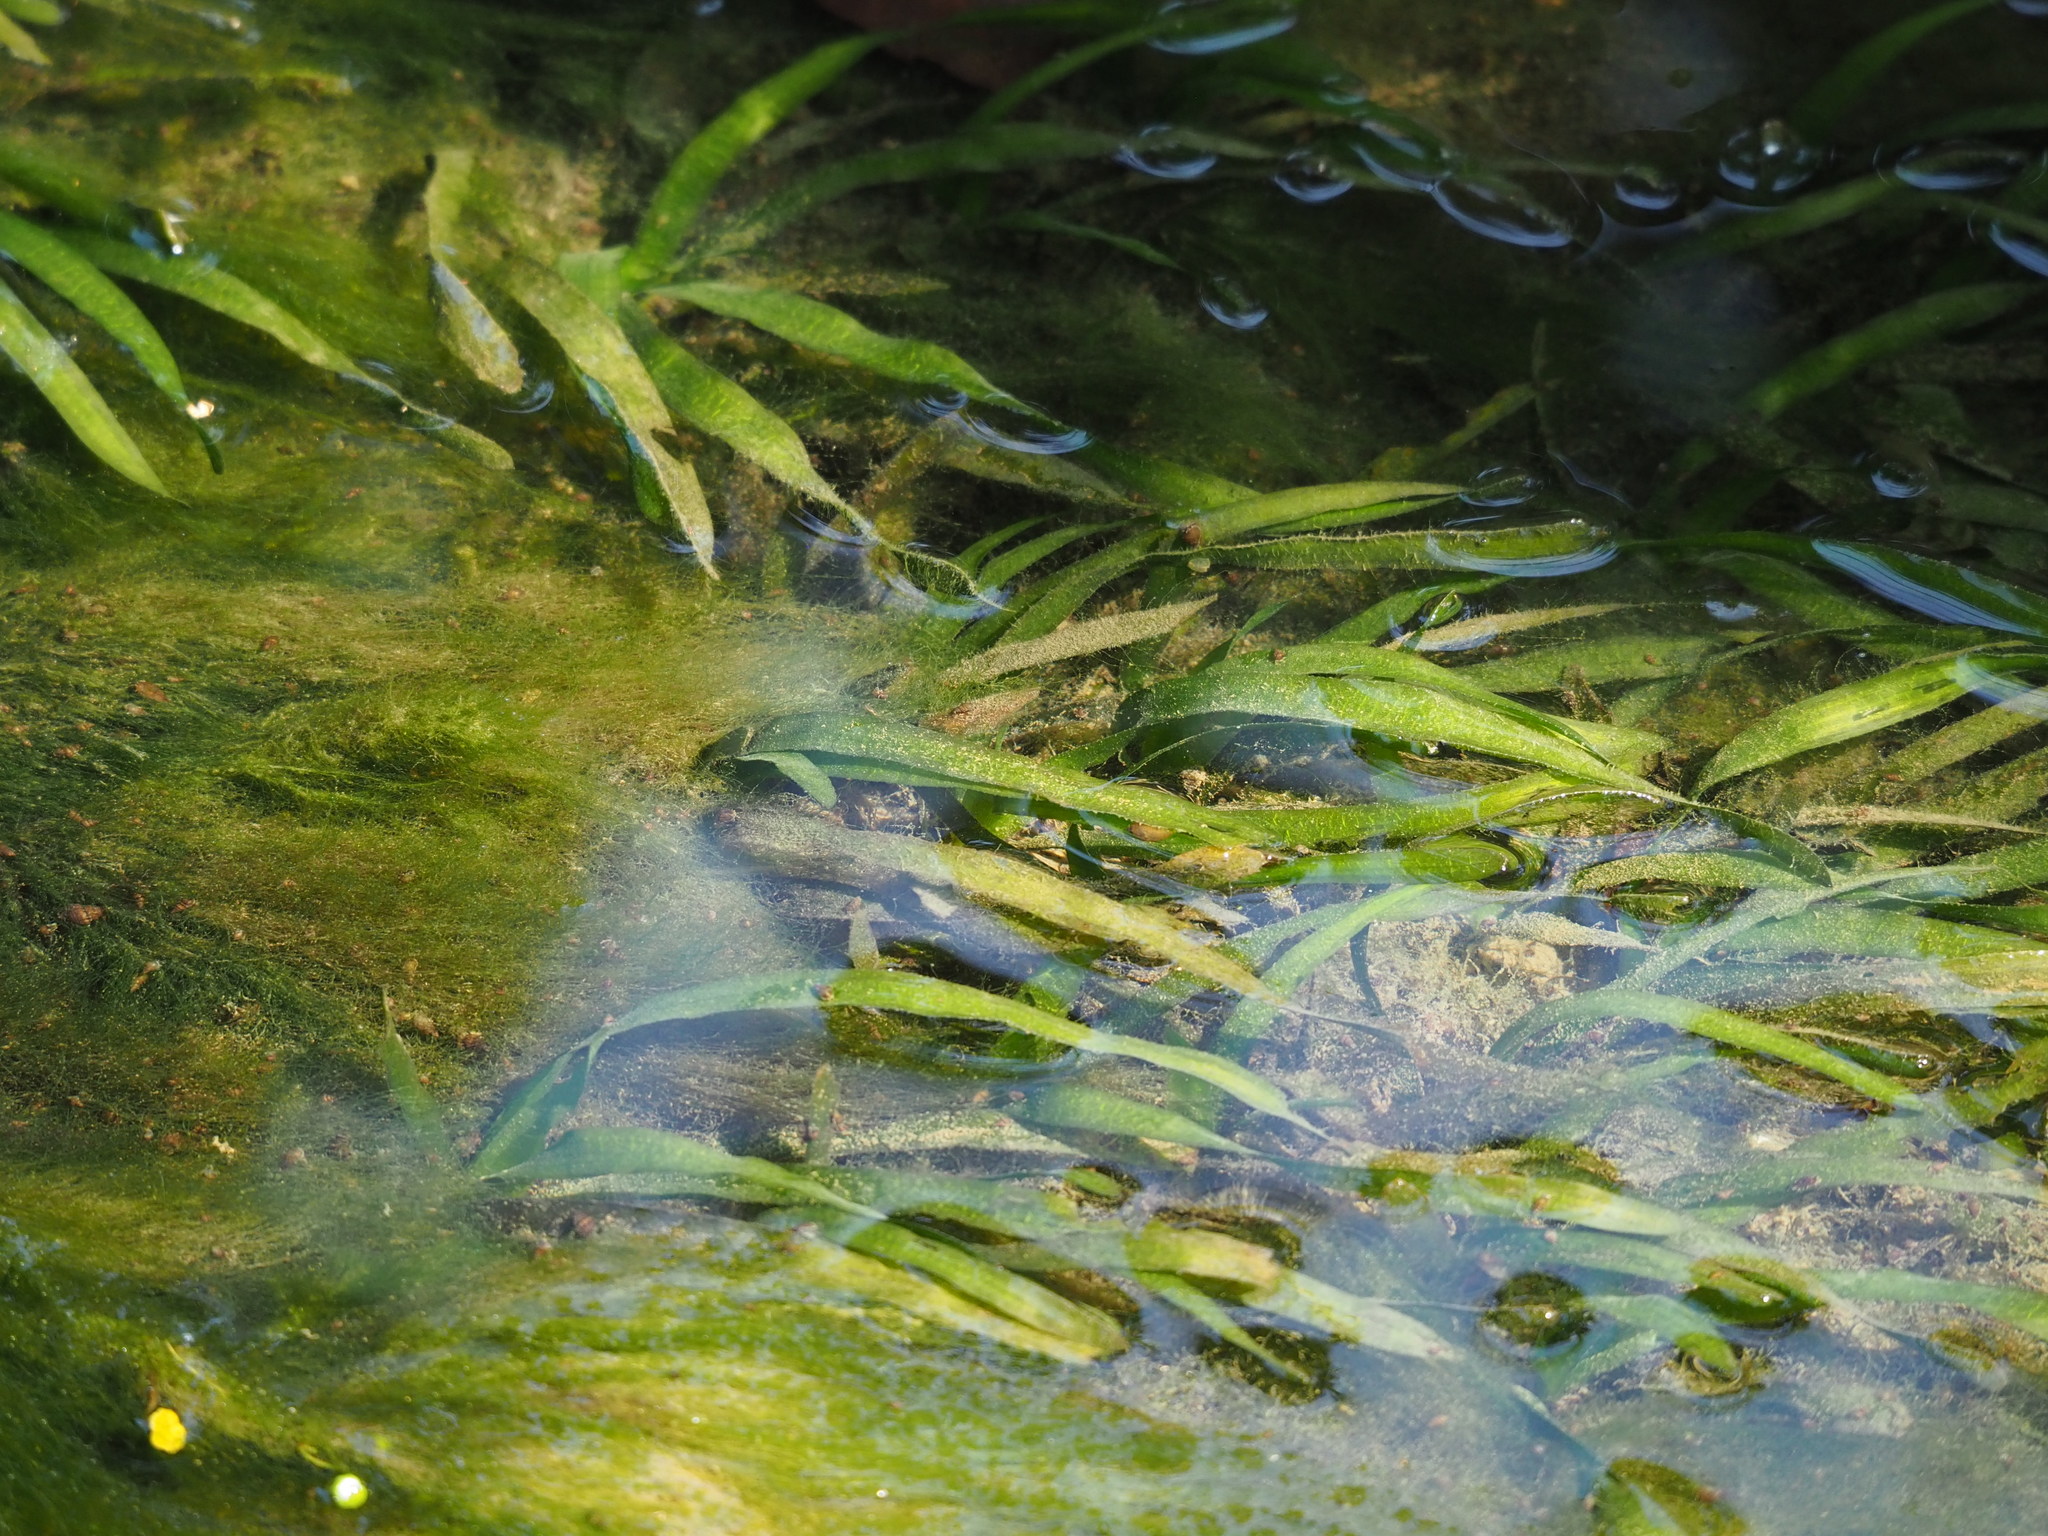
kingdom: Plantae
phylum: Tracheophyta
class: Liliopsida
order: Alismatales
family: Hydrocharitaceae
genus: Vallisneria
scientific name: Vallisneria
